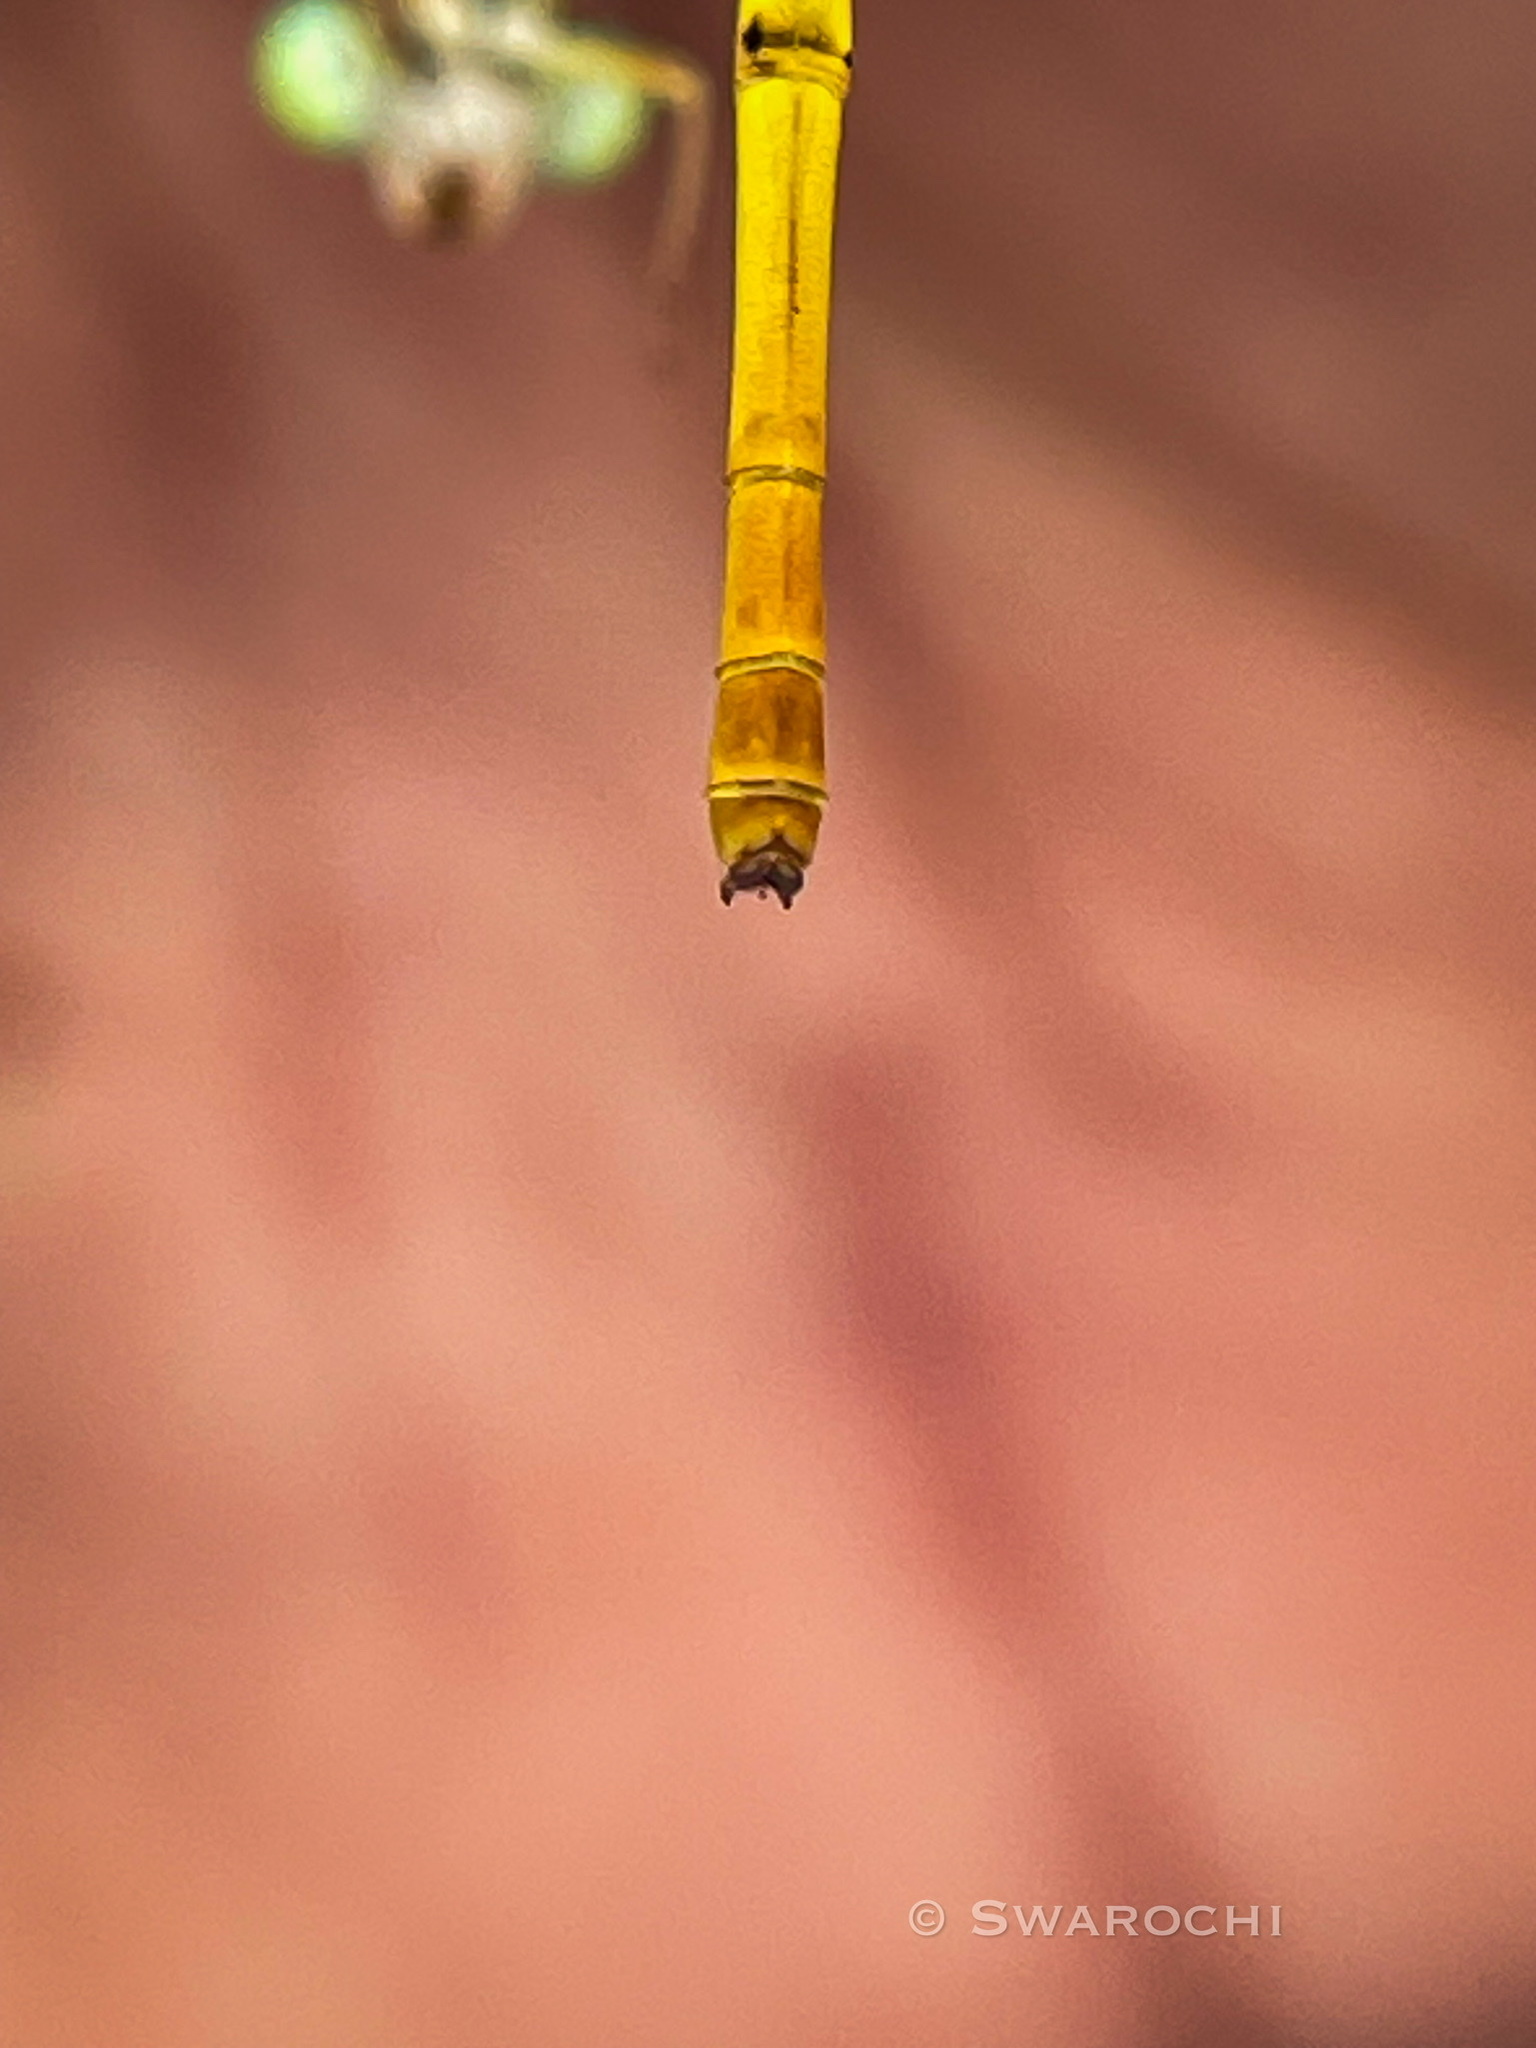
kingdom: Animalia
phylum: Arthropoda
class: Insecta
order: Odonata
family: Coenagrionidae
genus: Ceriagrion
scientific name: Ceriagrion coromandelianum
